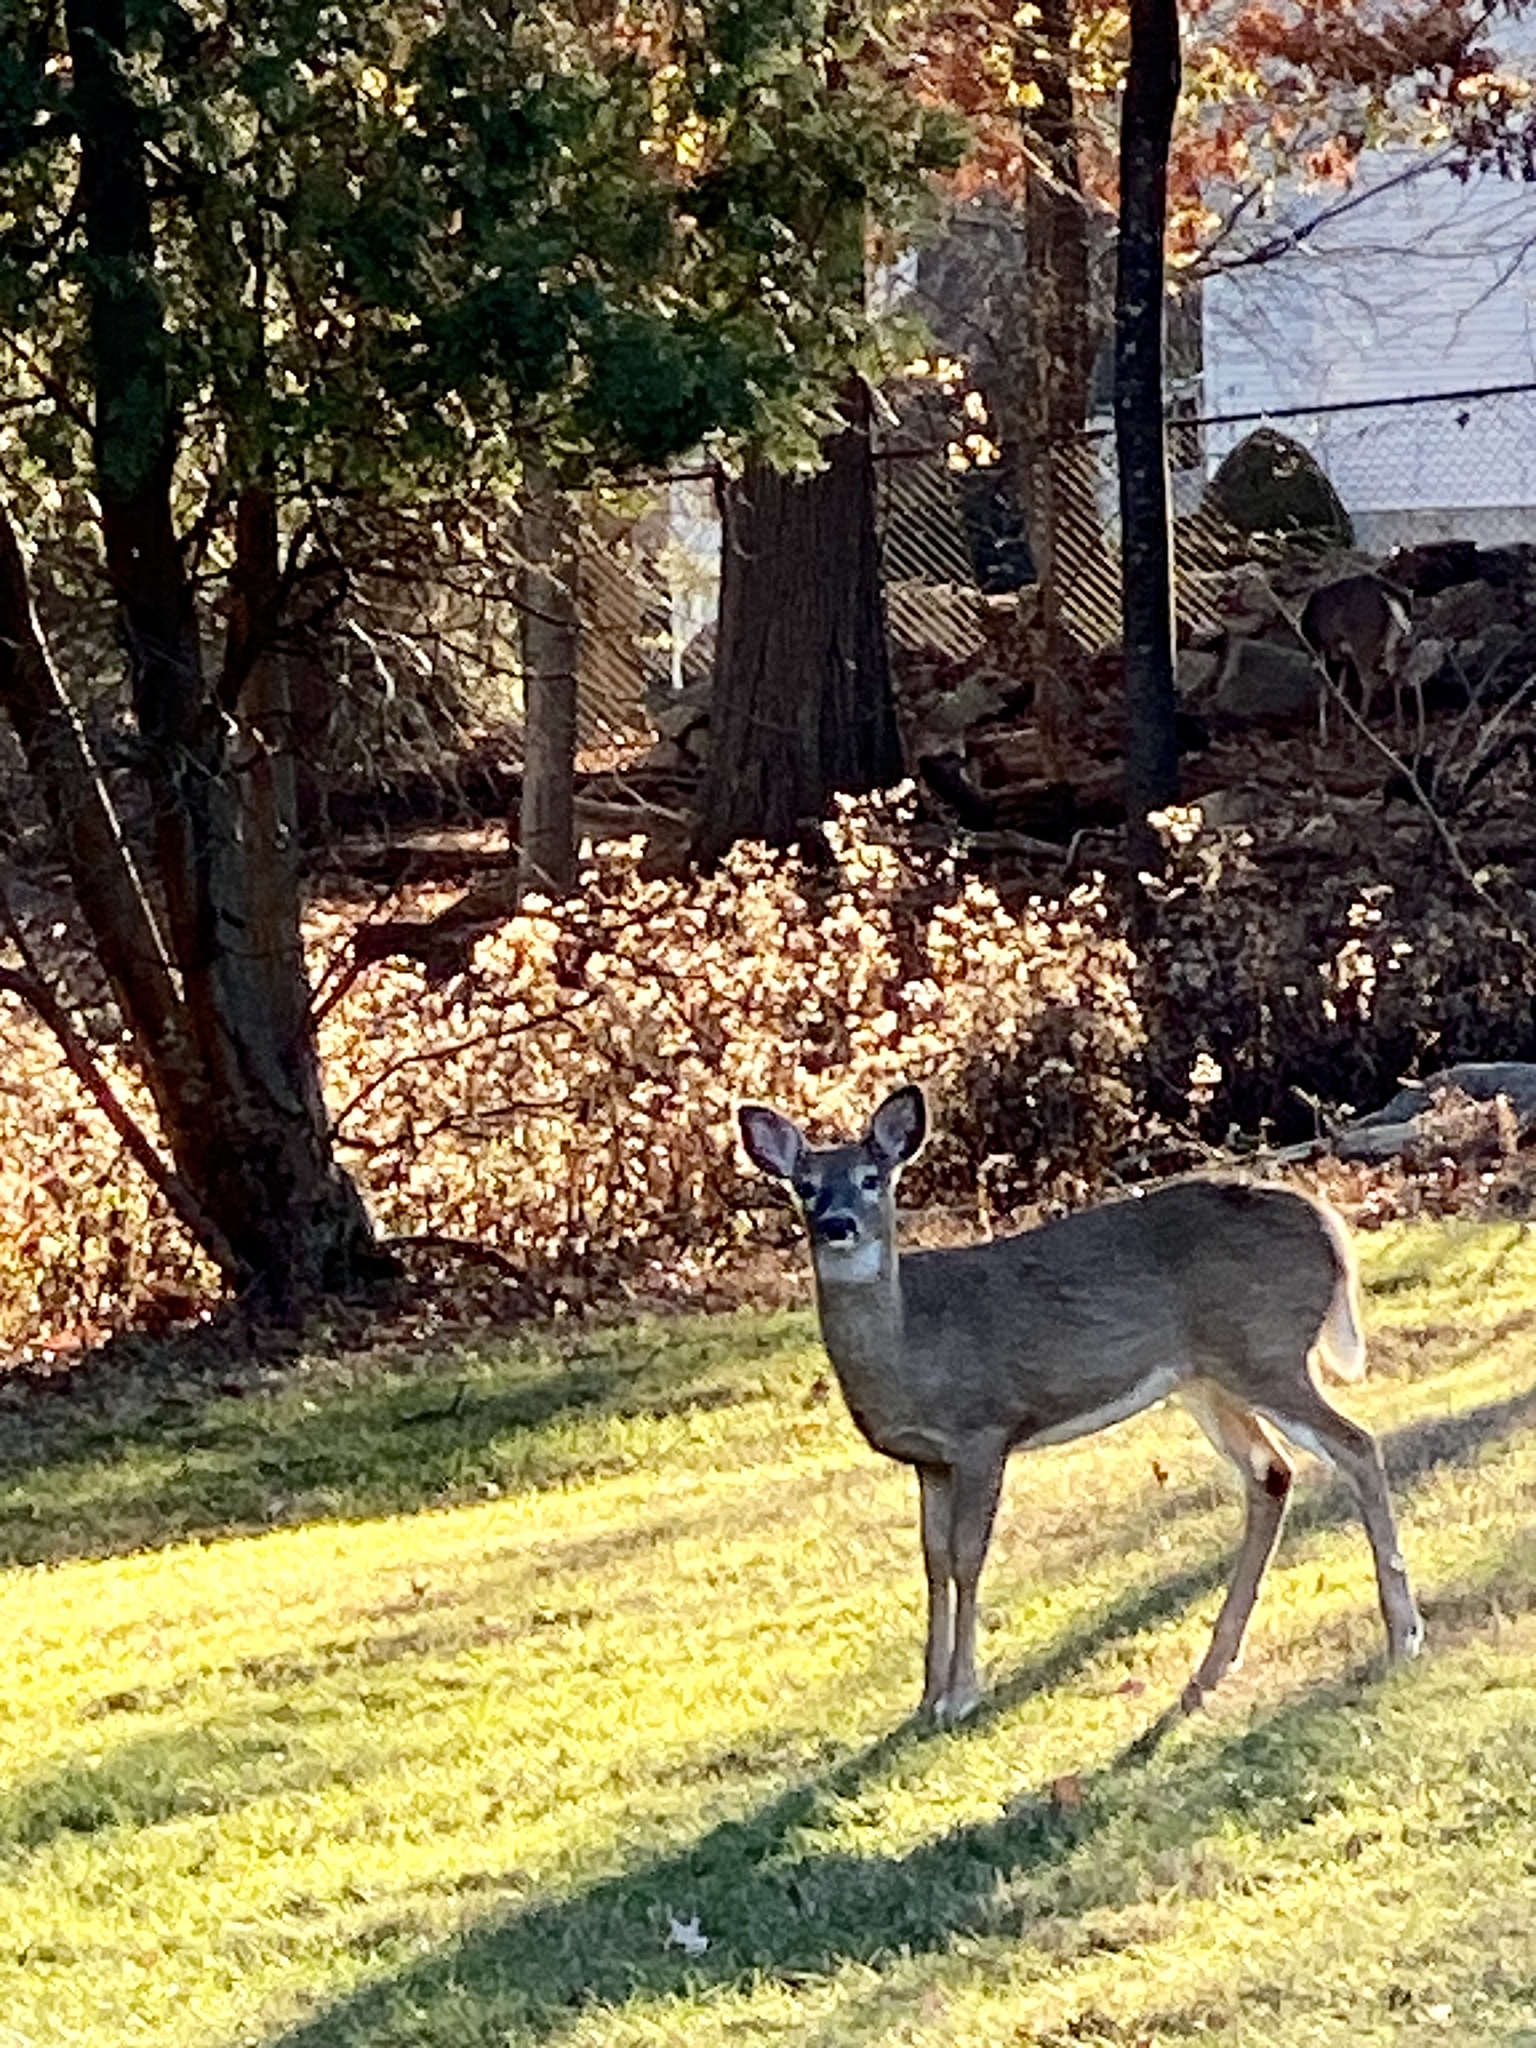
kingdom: Animalia
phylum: Chordata
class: Mammalia
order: Artiodactyla
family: Cervidae
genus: Odocoileus
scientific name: Odocoileus virginianus
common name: White-tailed deer
